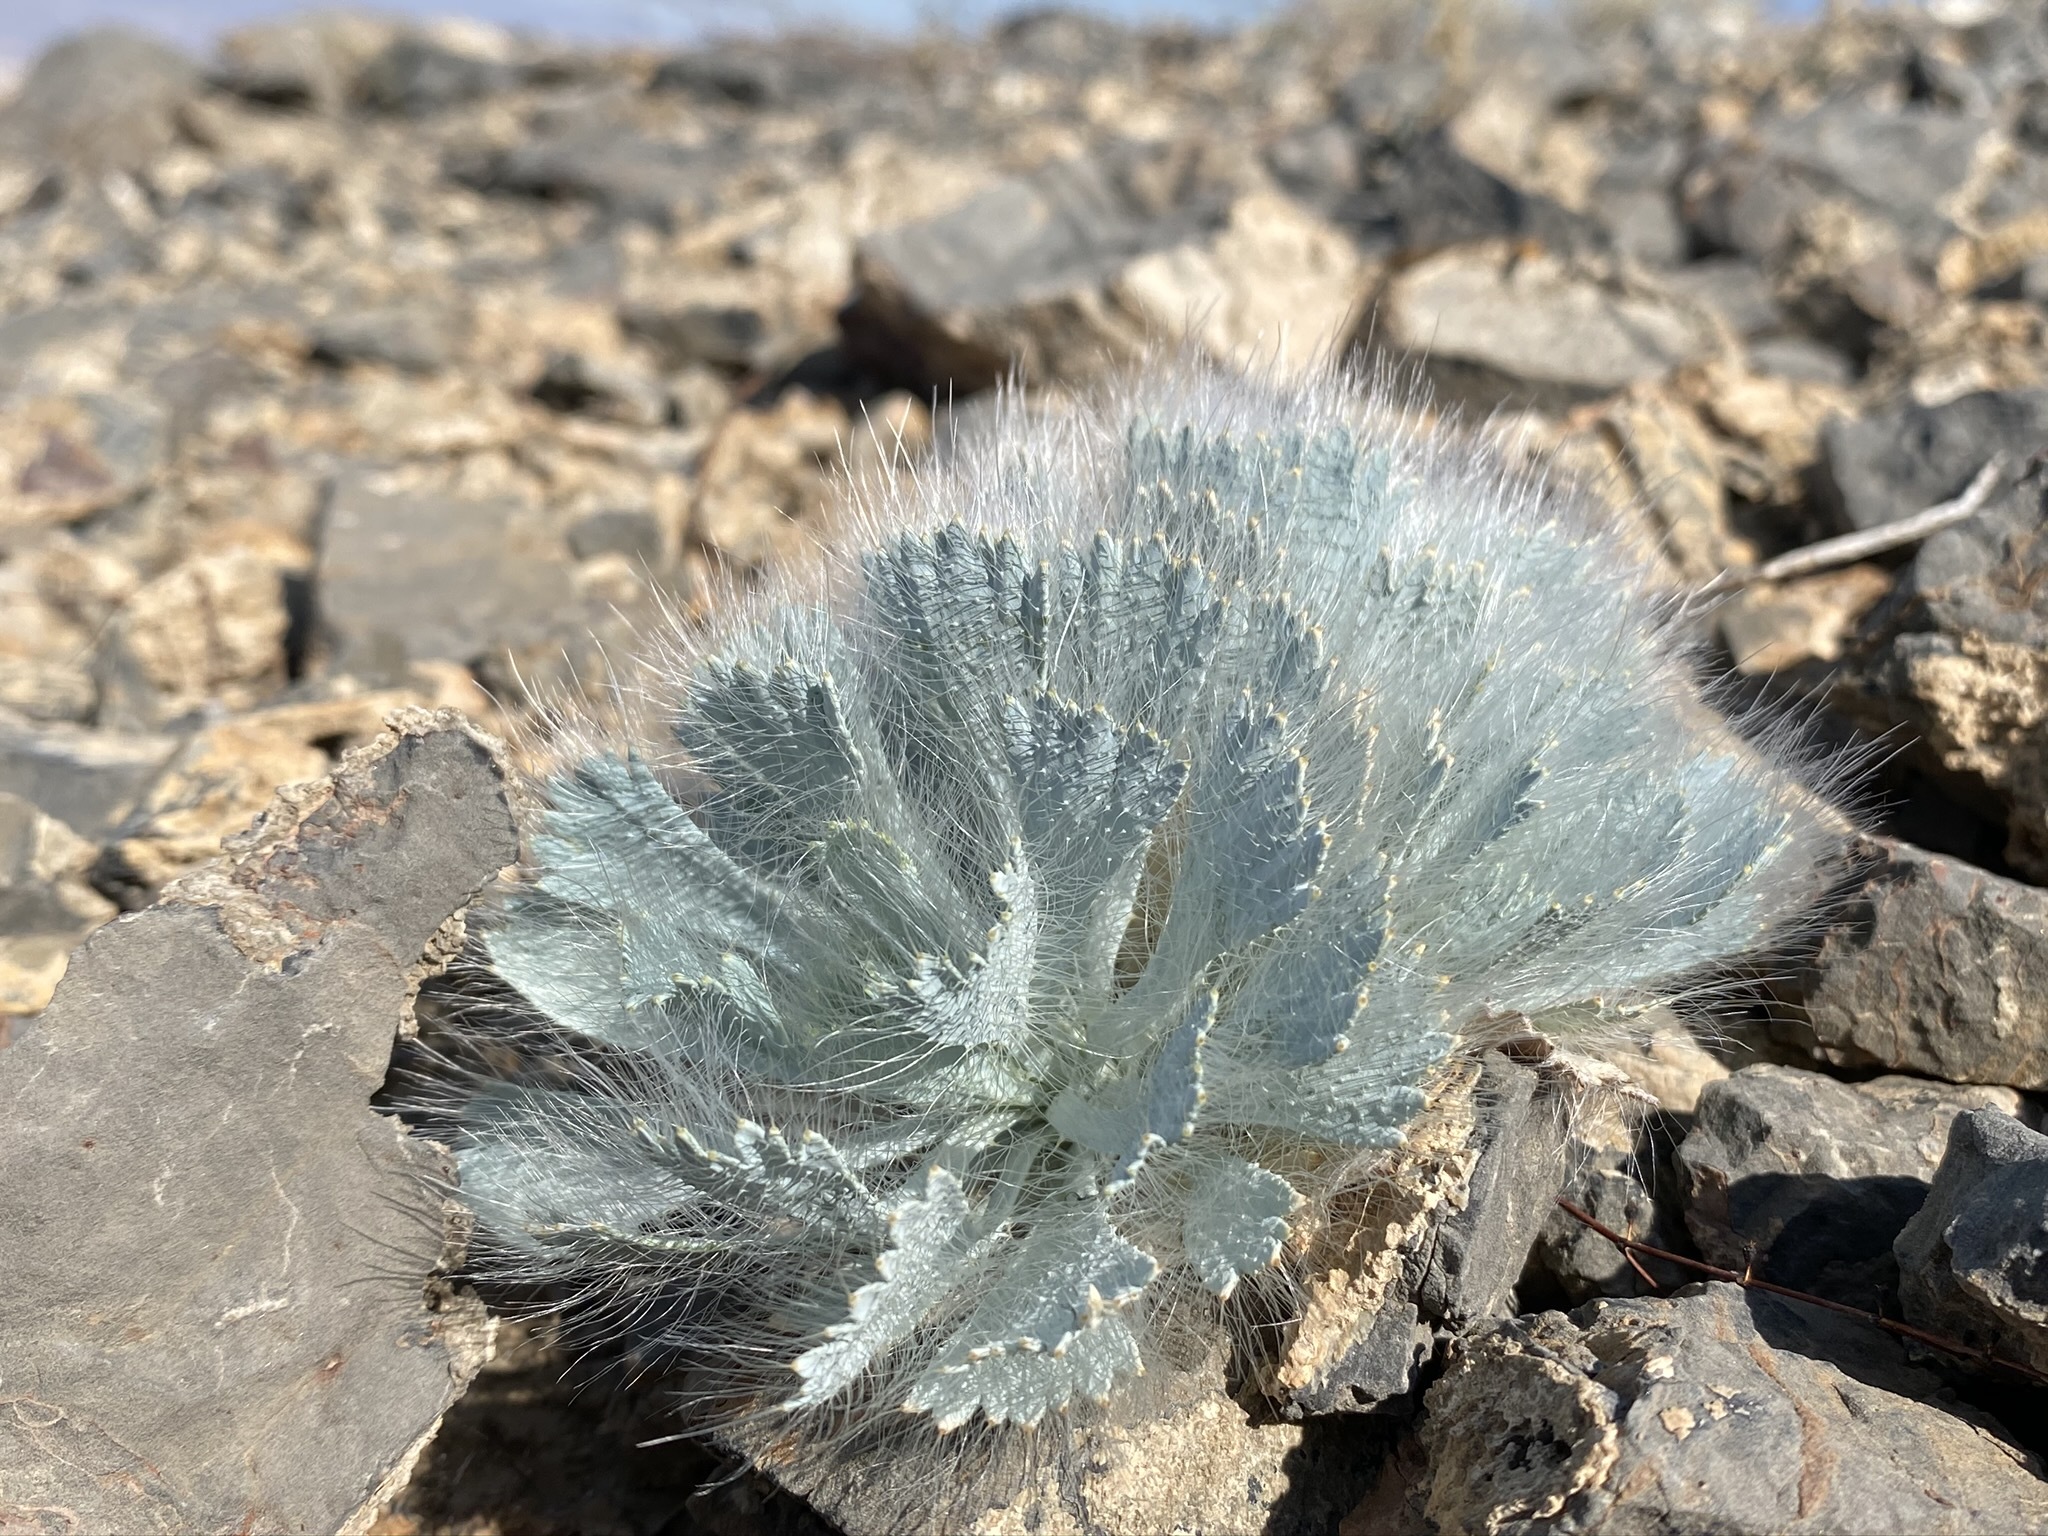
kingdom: Plantae
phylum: Tracheophyta
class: Magnoliopsida
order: Ranunculales
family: Papaveraceae
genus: Arctomecon
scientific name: Arctomecon merriamii
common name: White bear-poppy
